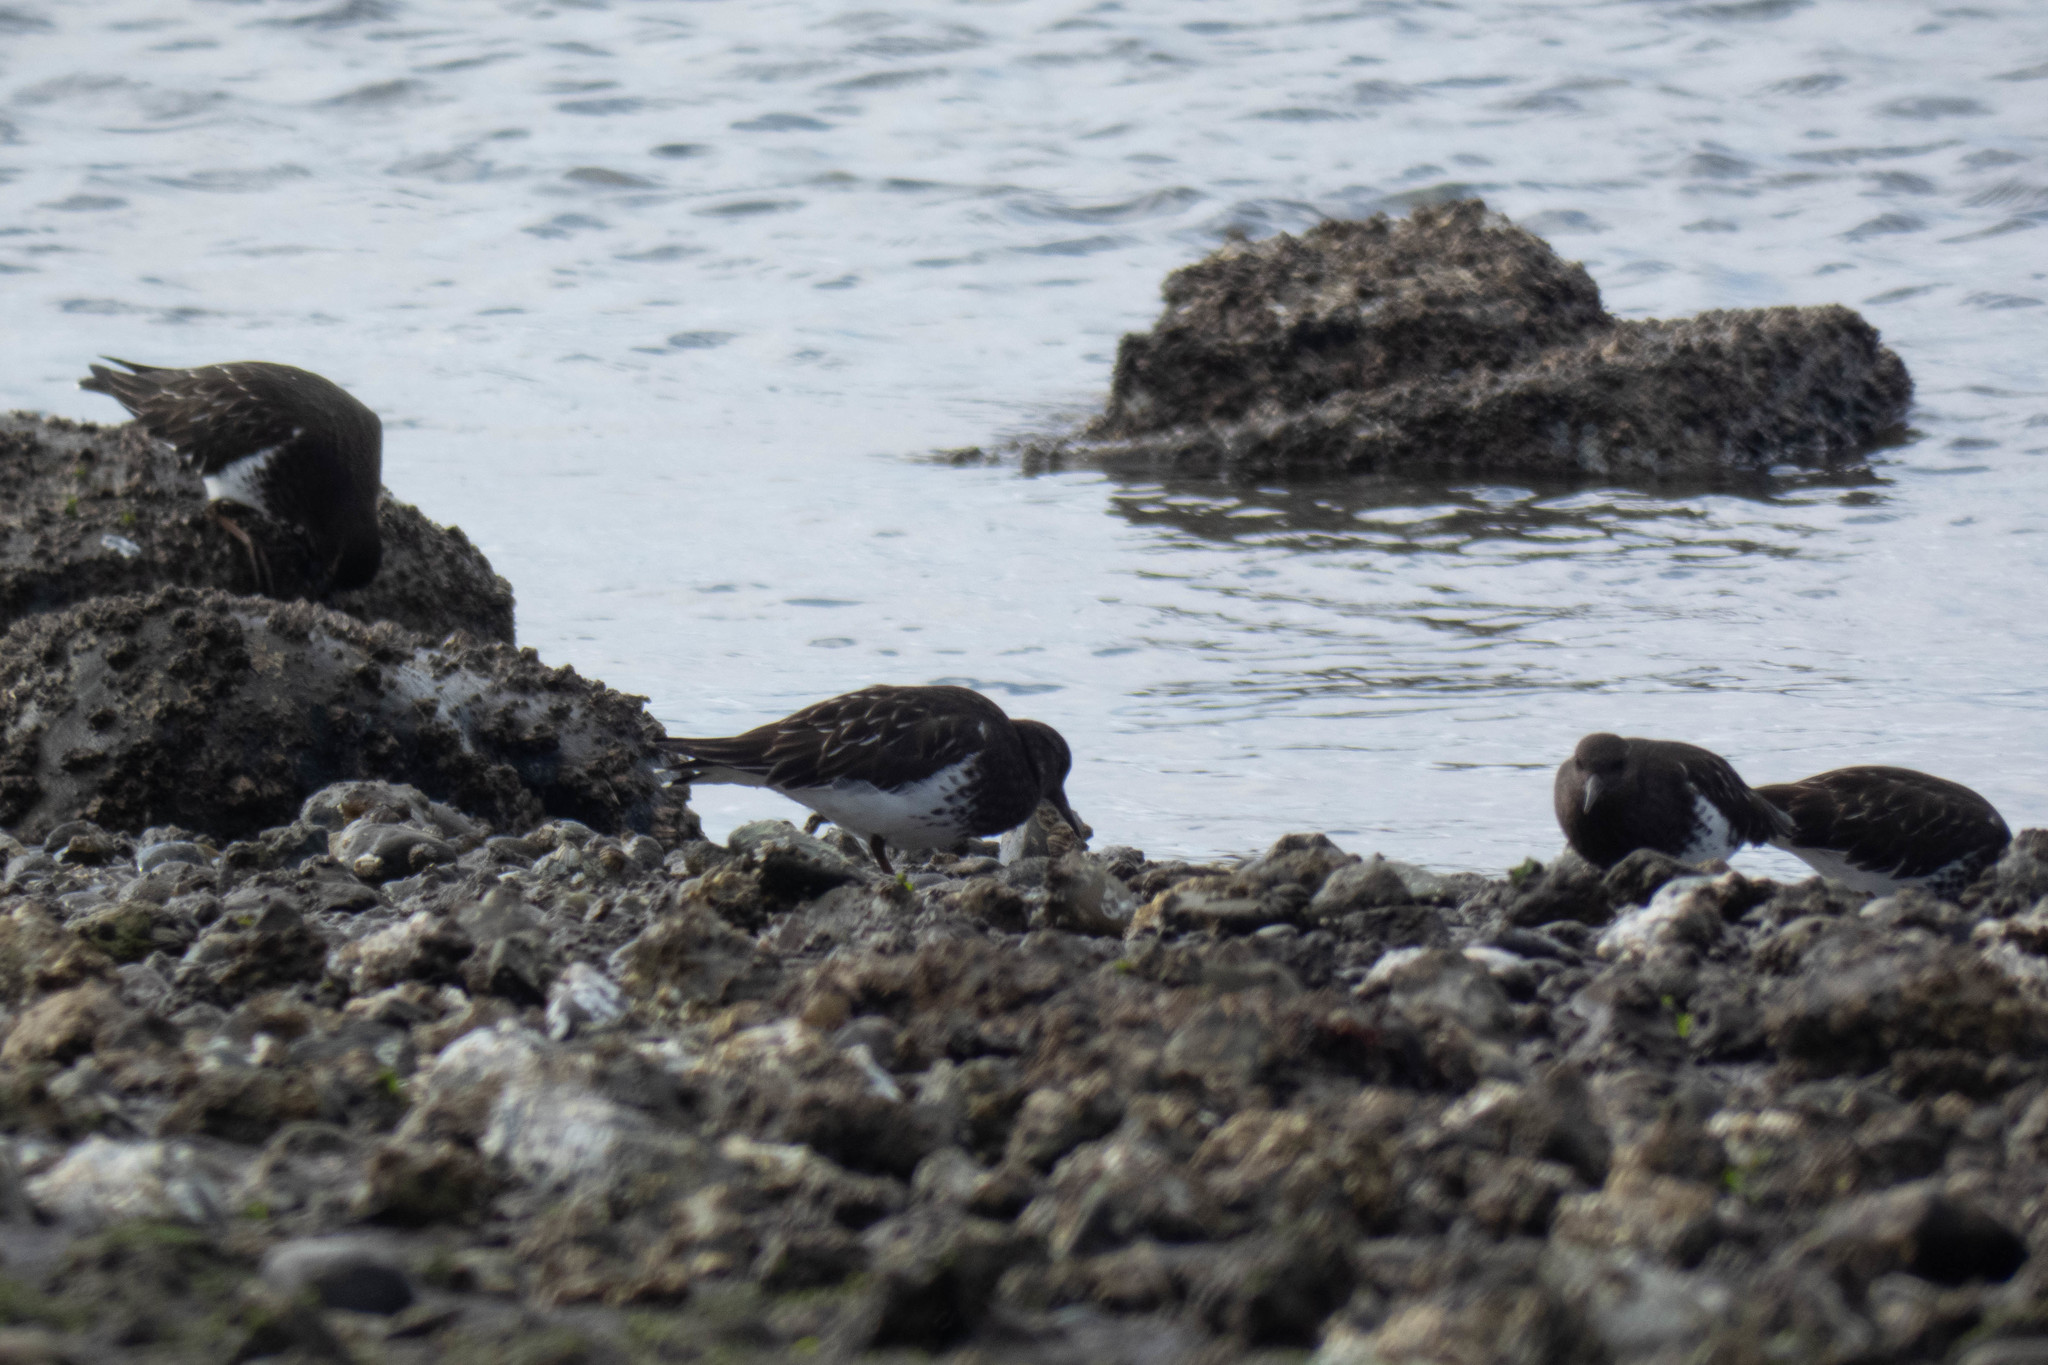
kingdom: Animalia
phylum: Chordata
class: Aves
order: Charadriiformes
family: Scolopacidae
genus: Arenaria
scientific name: Arenaria melanocephala
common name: Black turnstone
